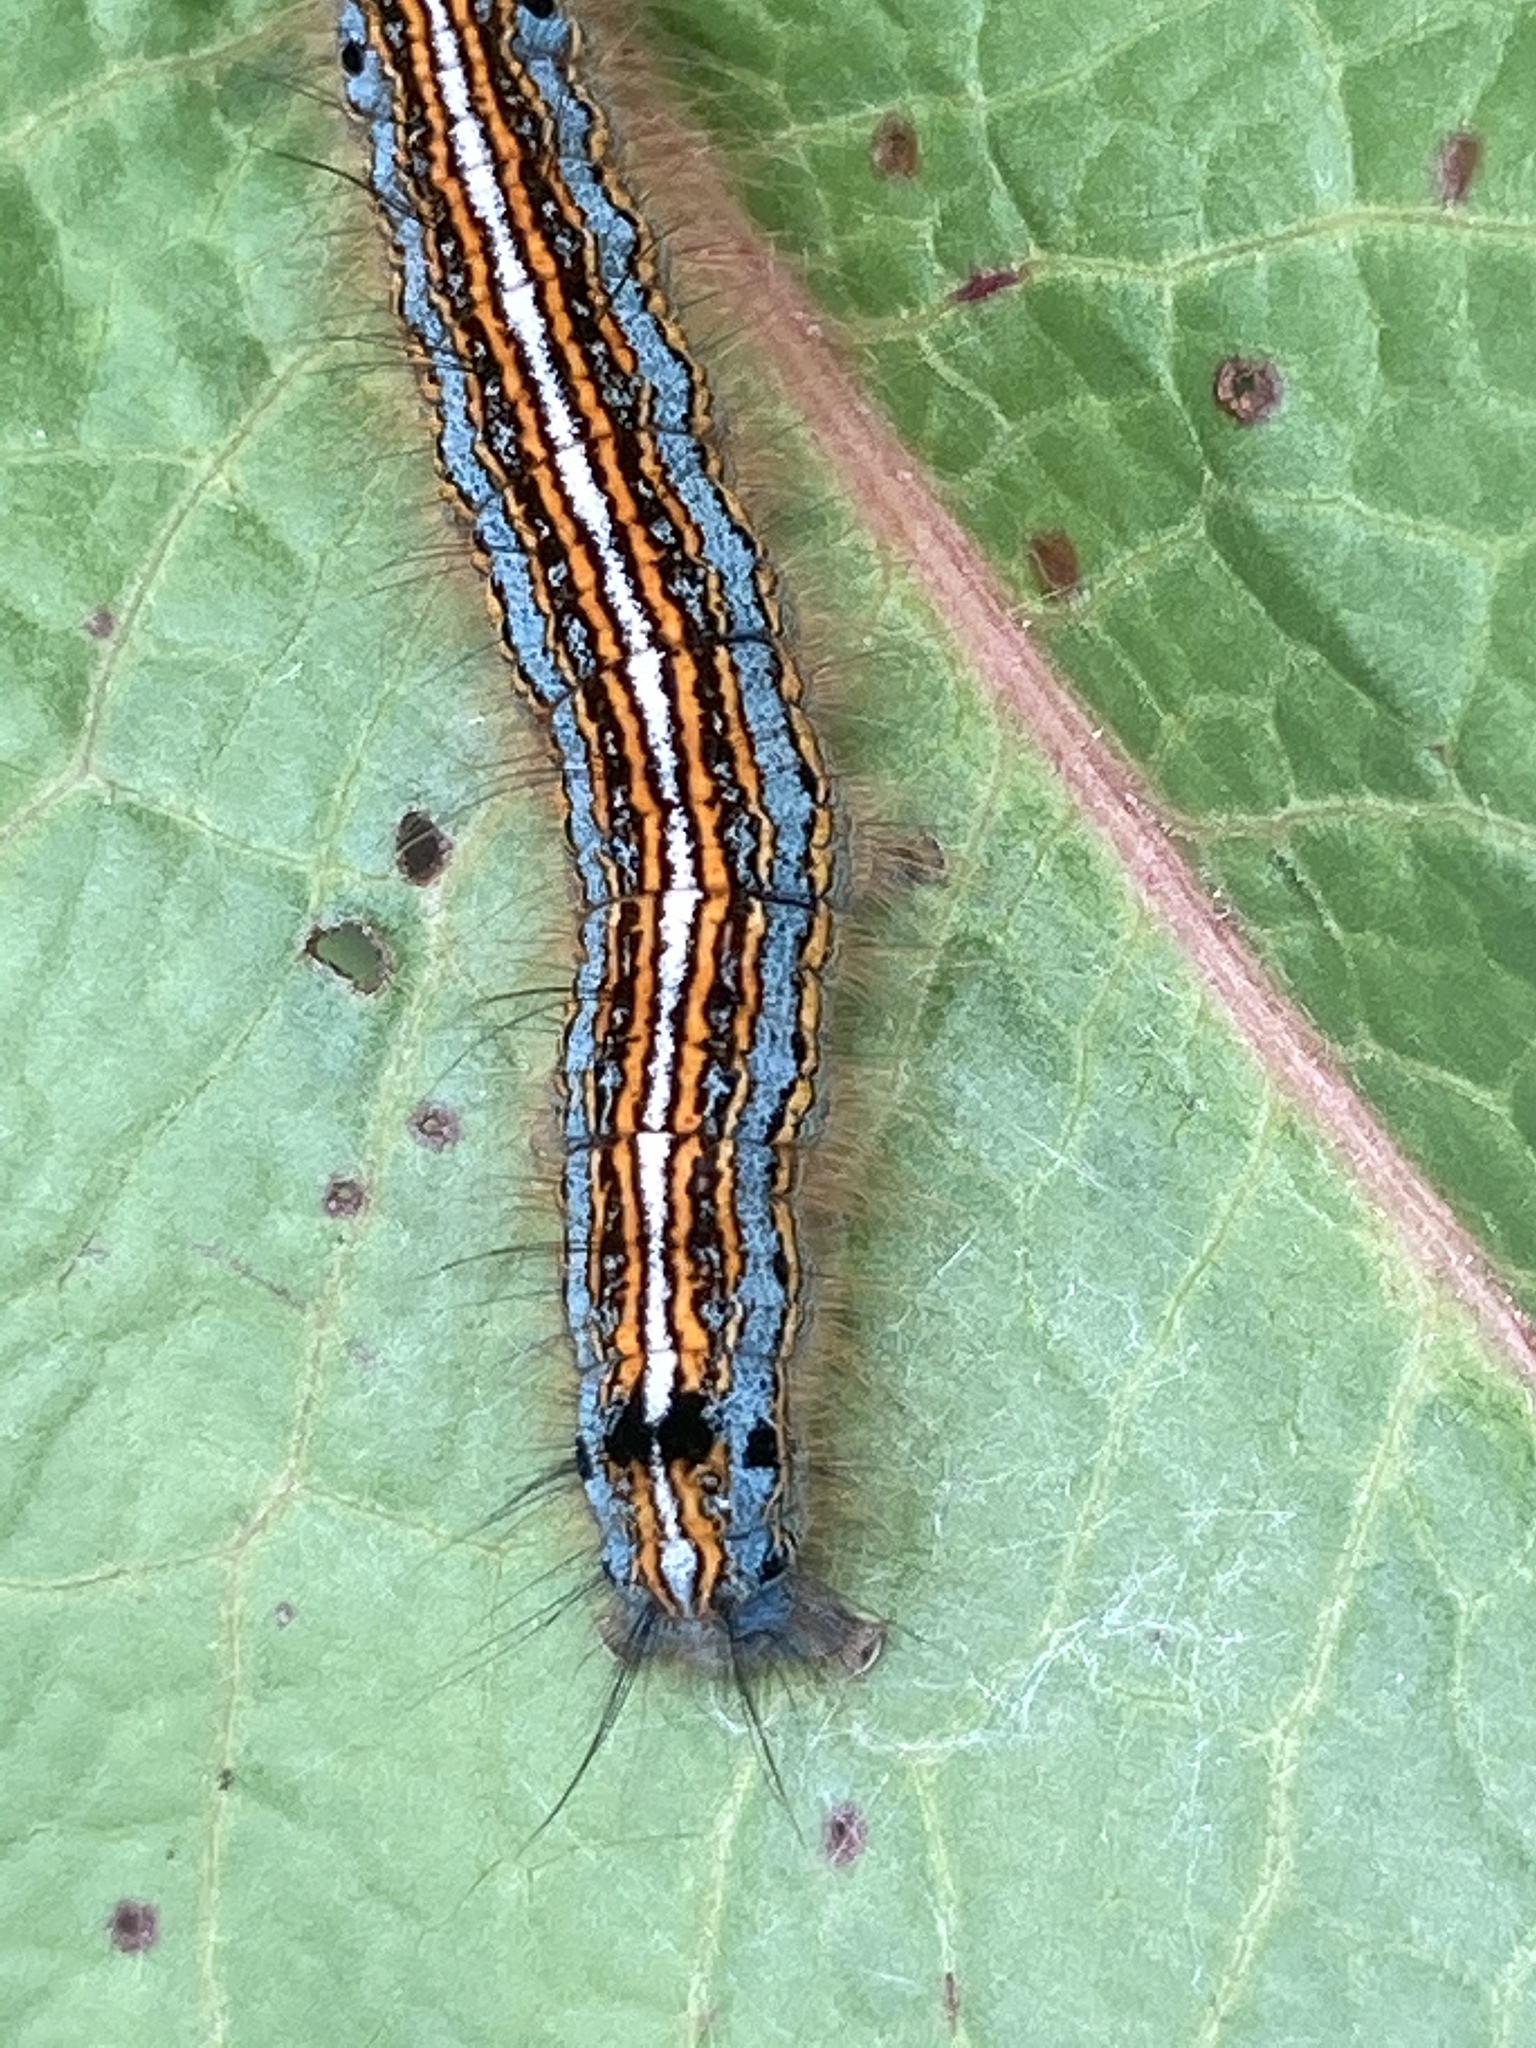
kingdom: Animalia
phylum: Arthropoda
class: Insecta
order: Lepidoptera
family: Lasiocampidae
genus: Malacosoma
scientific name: Malacosoma neustria
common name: The lackey
